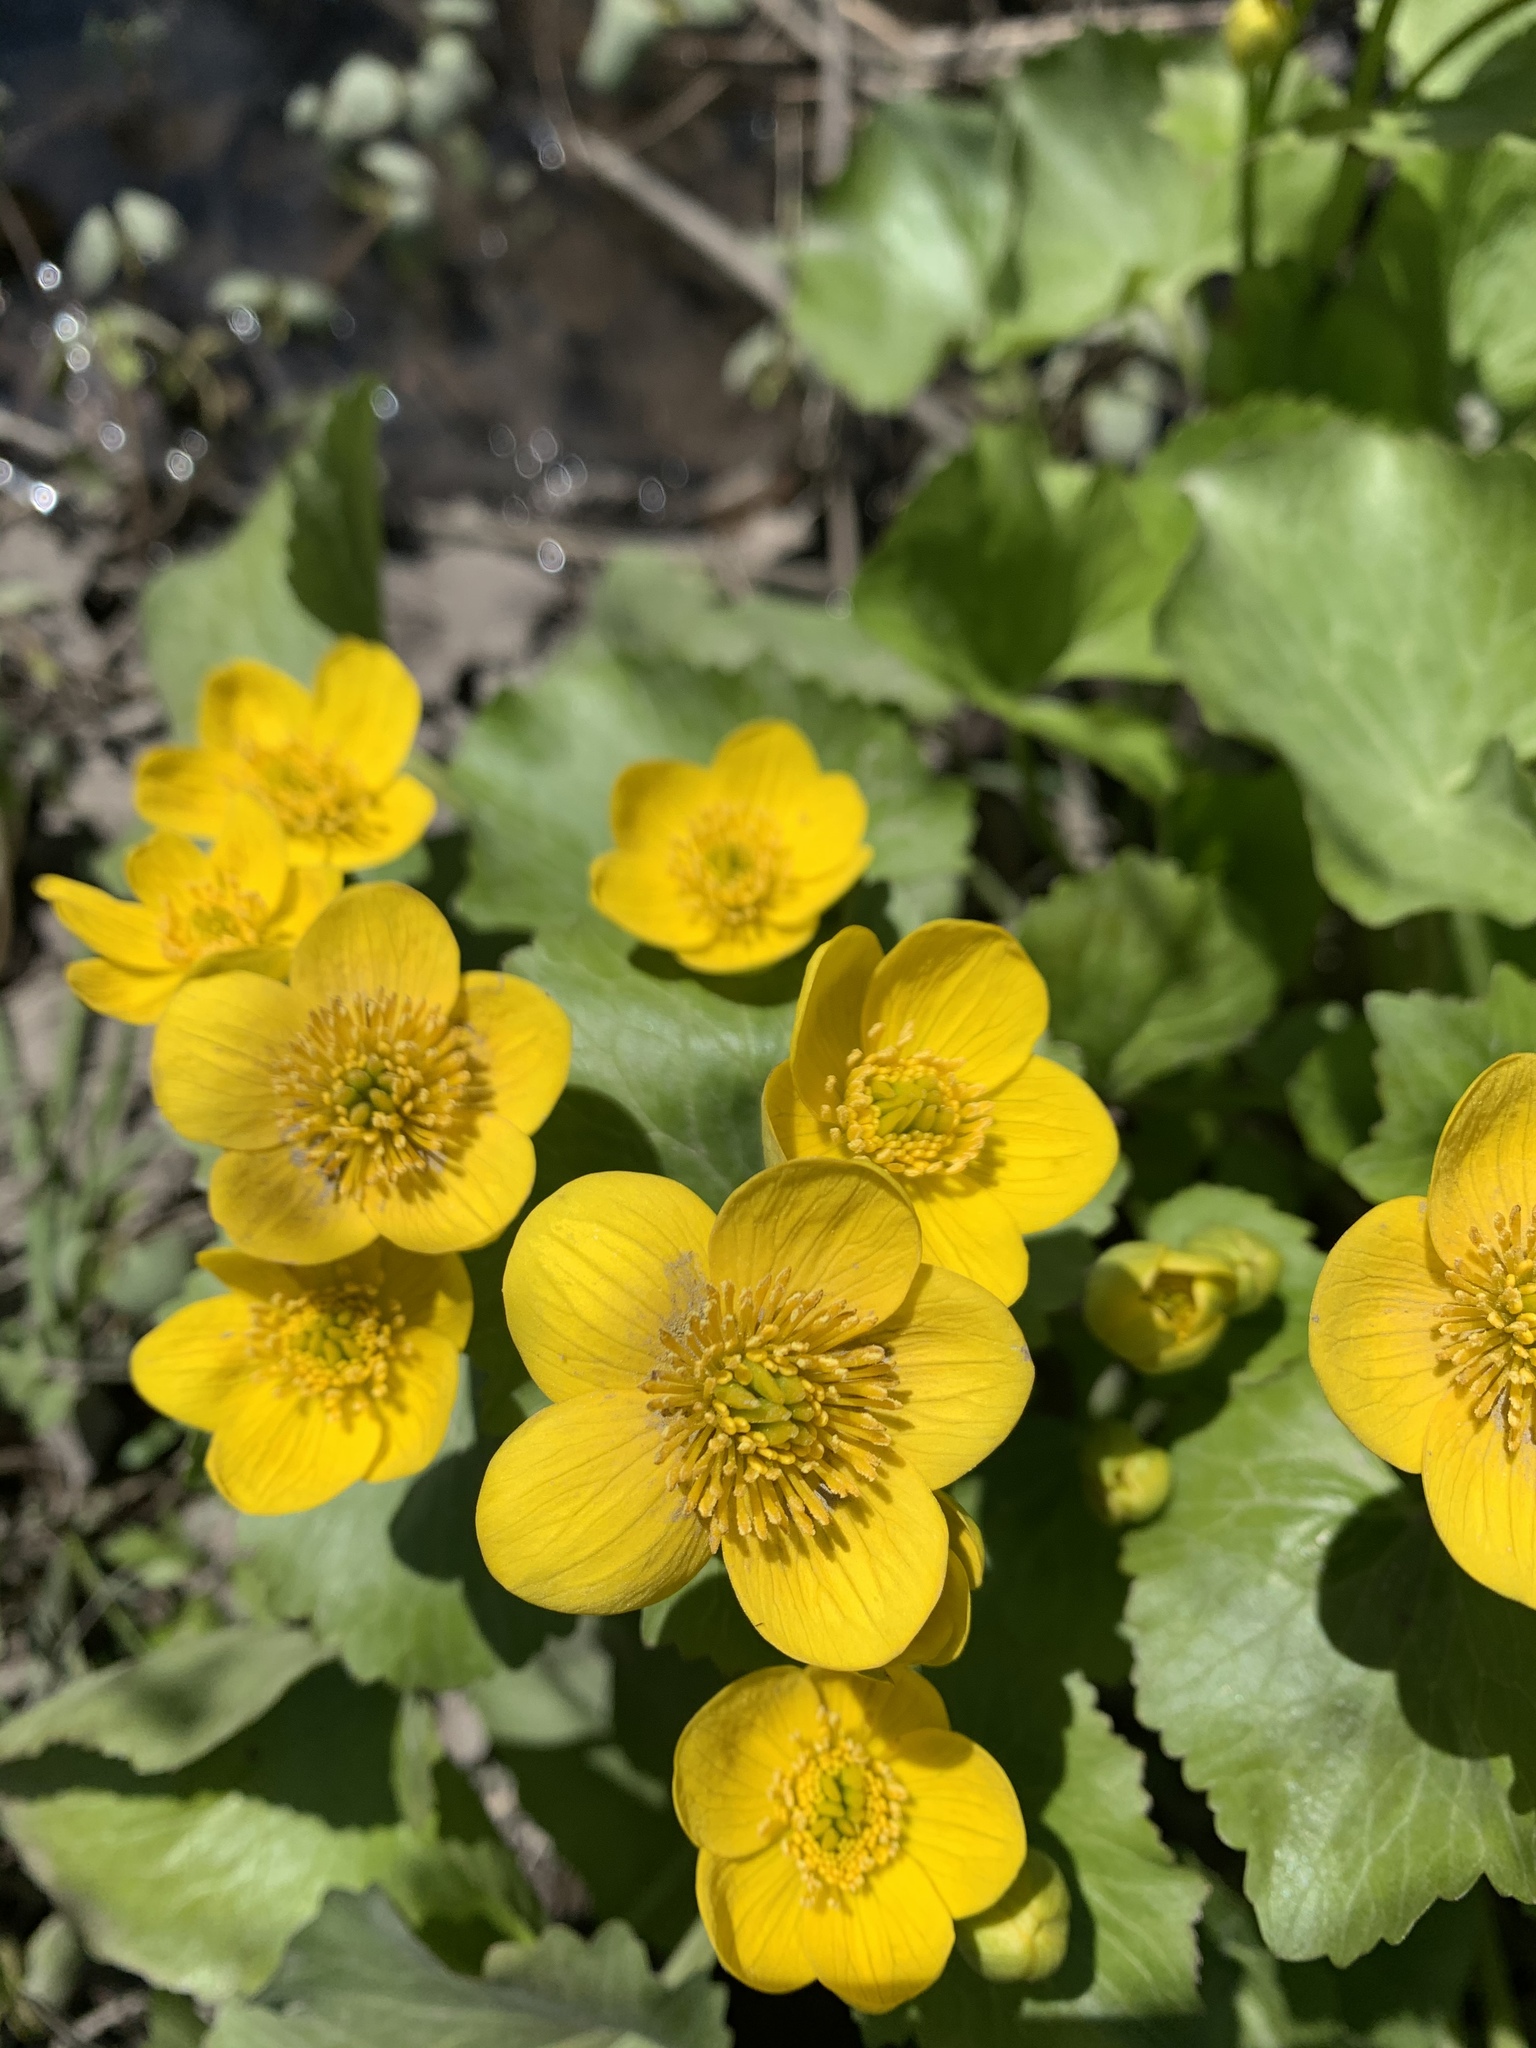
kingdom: Plantae
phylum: Tracheophyta
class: Magnoliopsida
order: Ranunculales
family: Ranunculaceae
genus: Caltha
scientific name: Caltha palustris
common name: Marsh marigold
